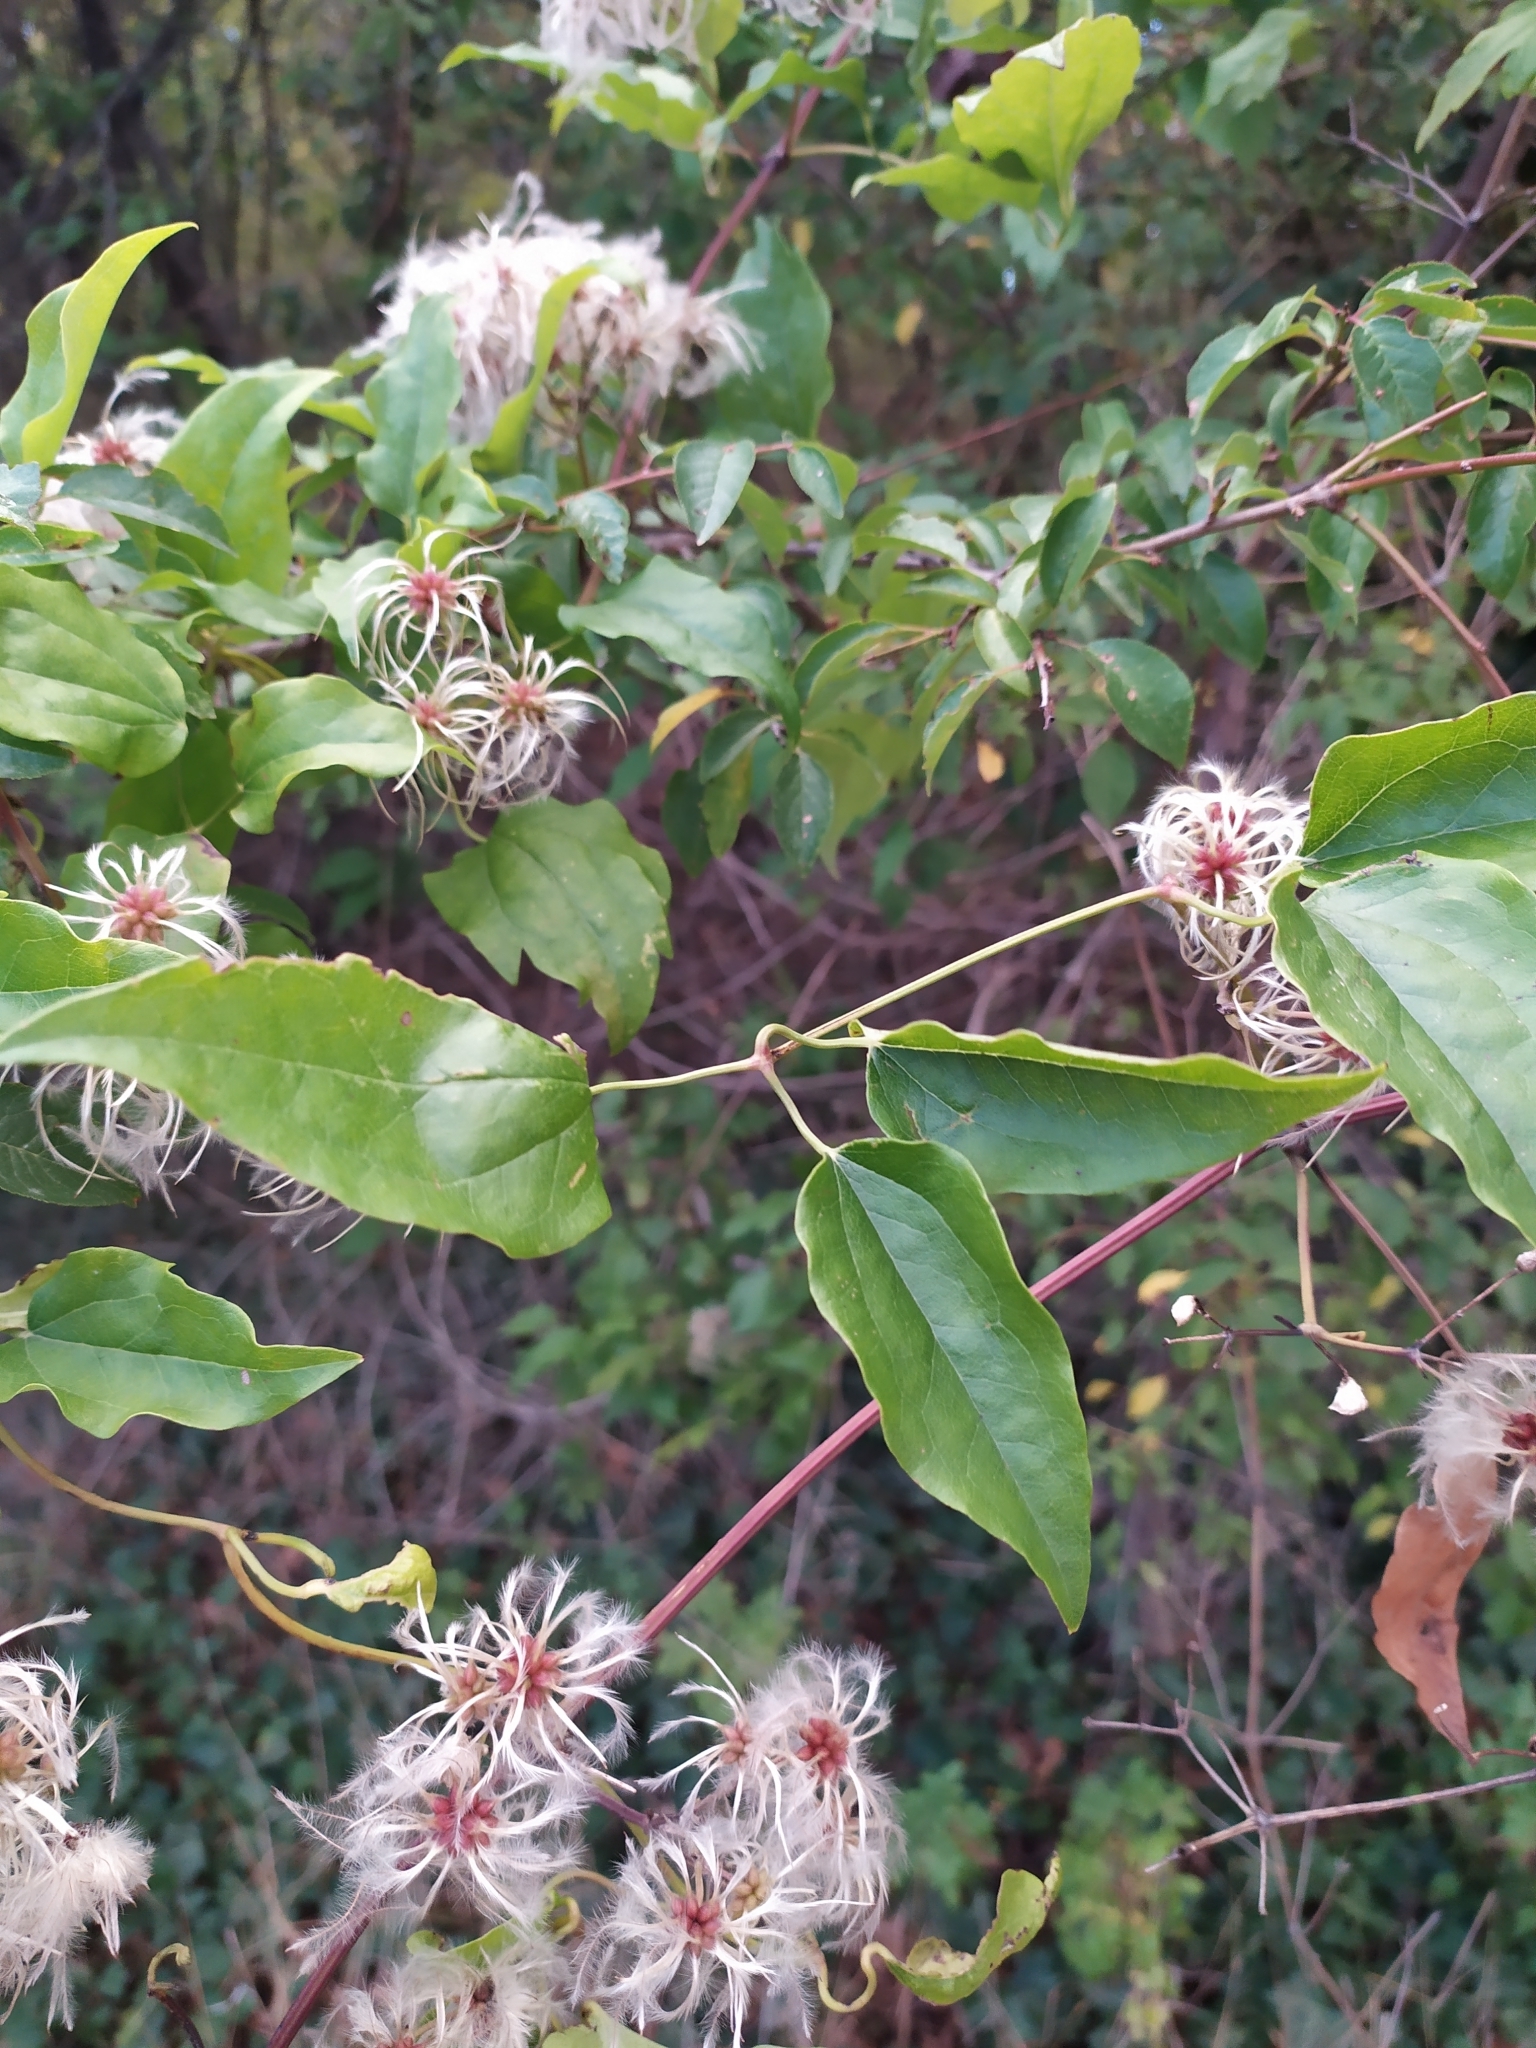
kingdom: Plantae
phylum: Tracheophyta
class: Magnoliopsida
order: Ranunculales
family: Ranunculaceae
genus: Clematis
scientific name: Clematis vitalba
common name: Evergreen clematis
